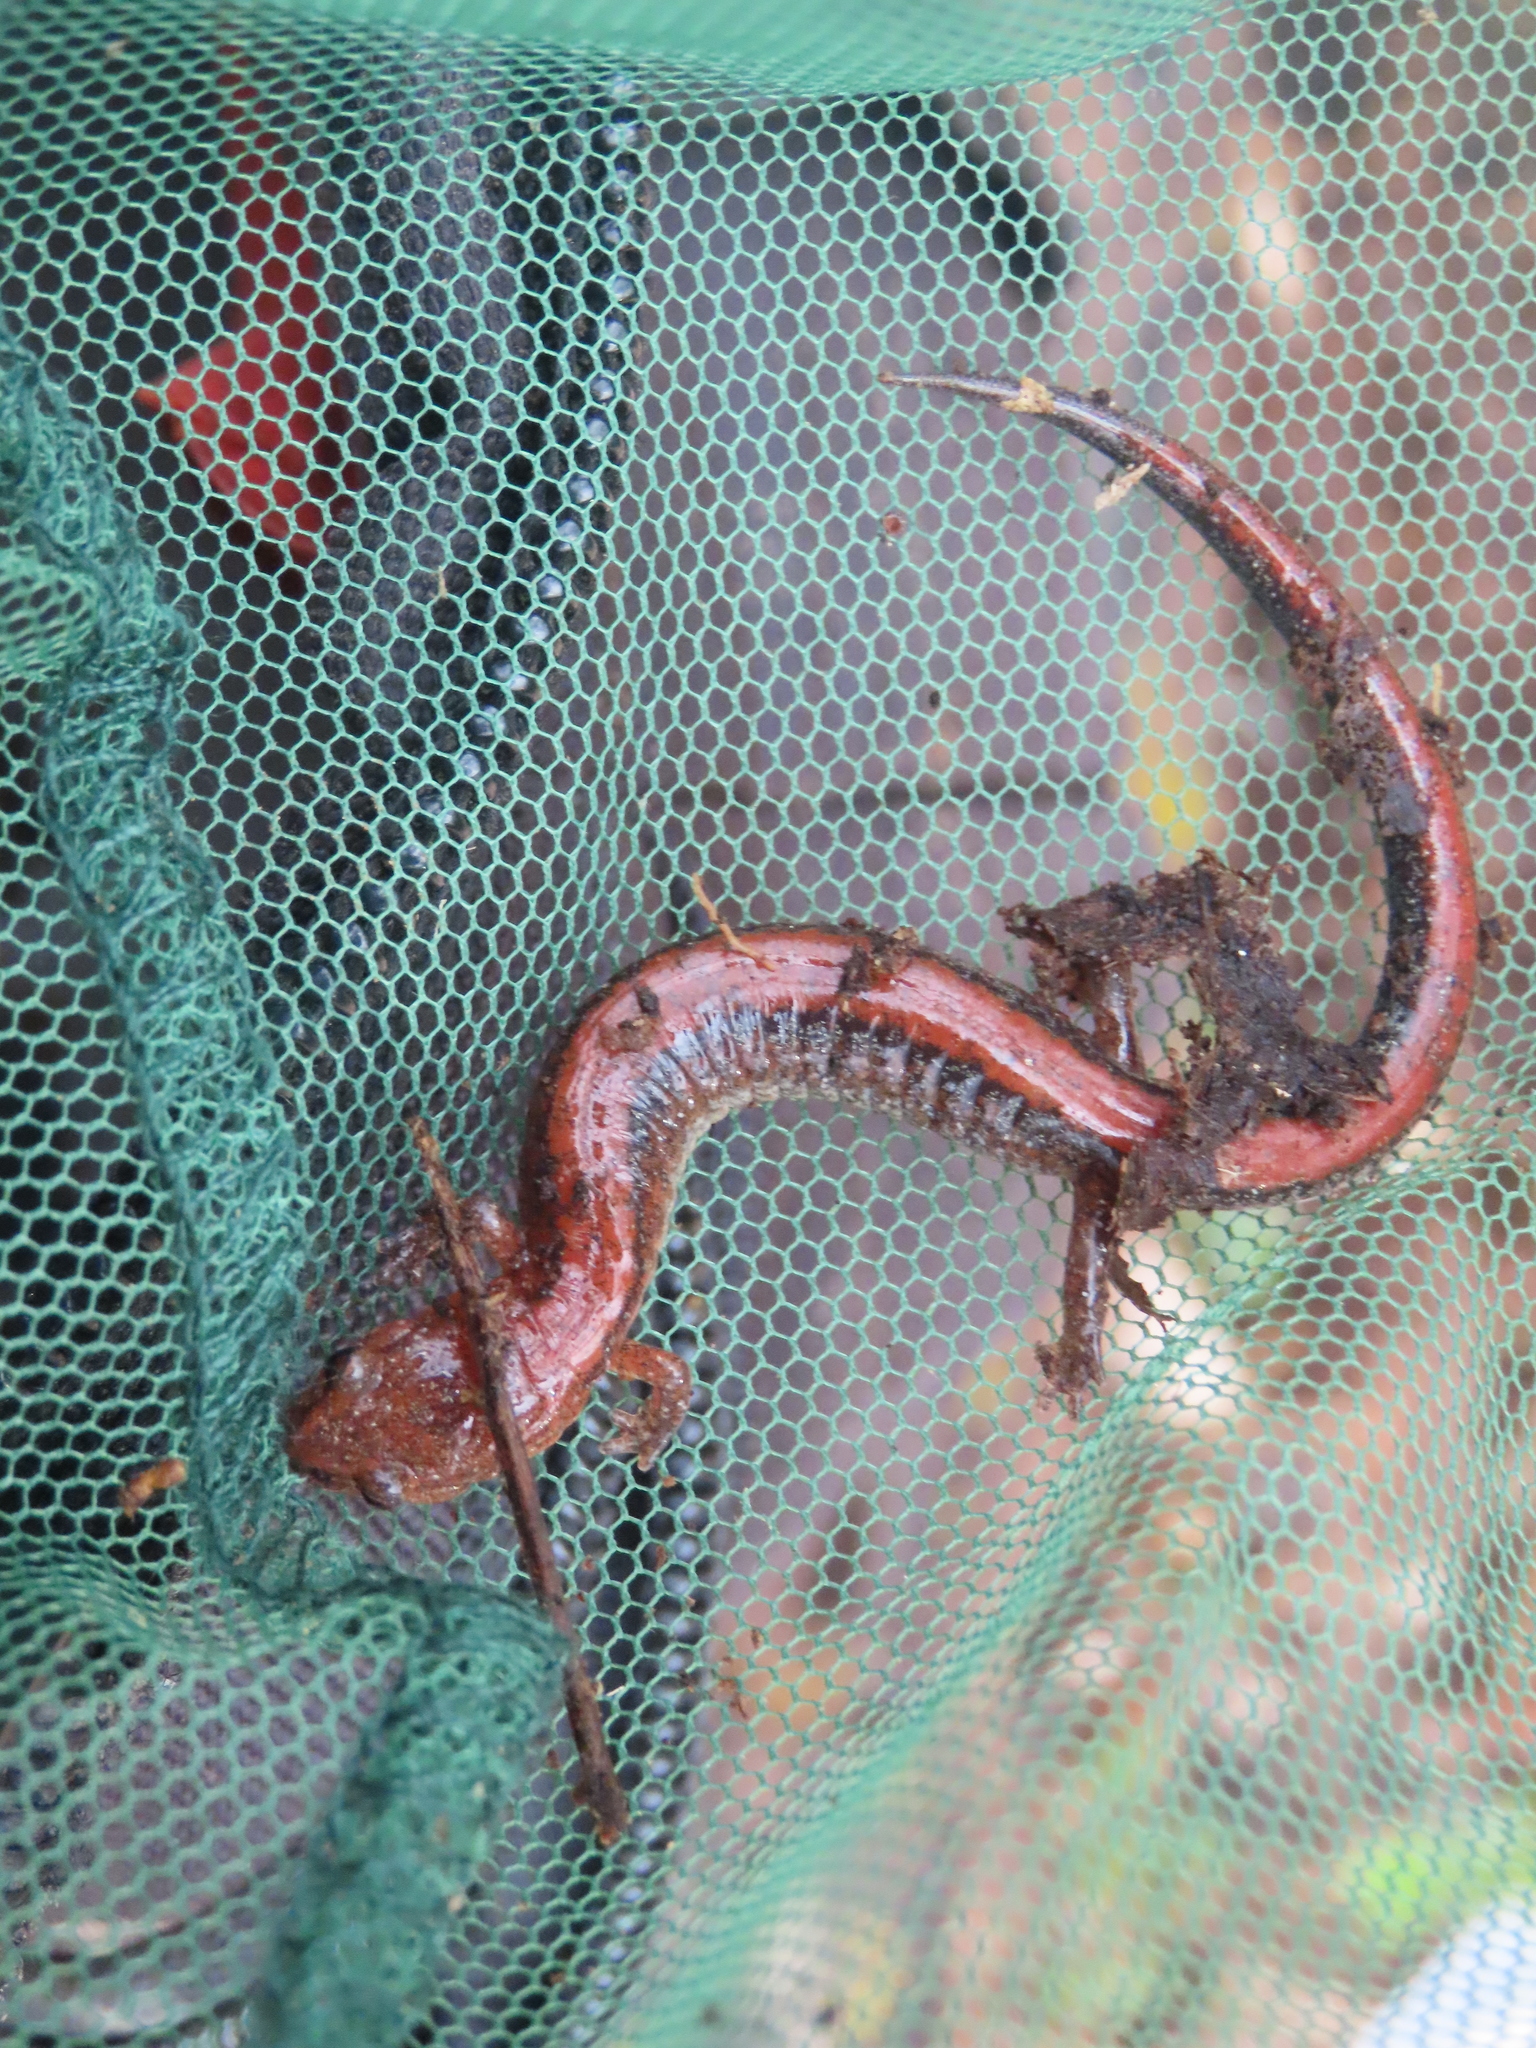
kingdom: Animalia
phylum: Chordata
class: Amphibia
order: Caudata
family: Plethodontidae
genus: Plethodon
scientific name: Plethodon cinereus
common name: Redback salamander
